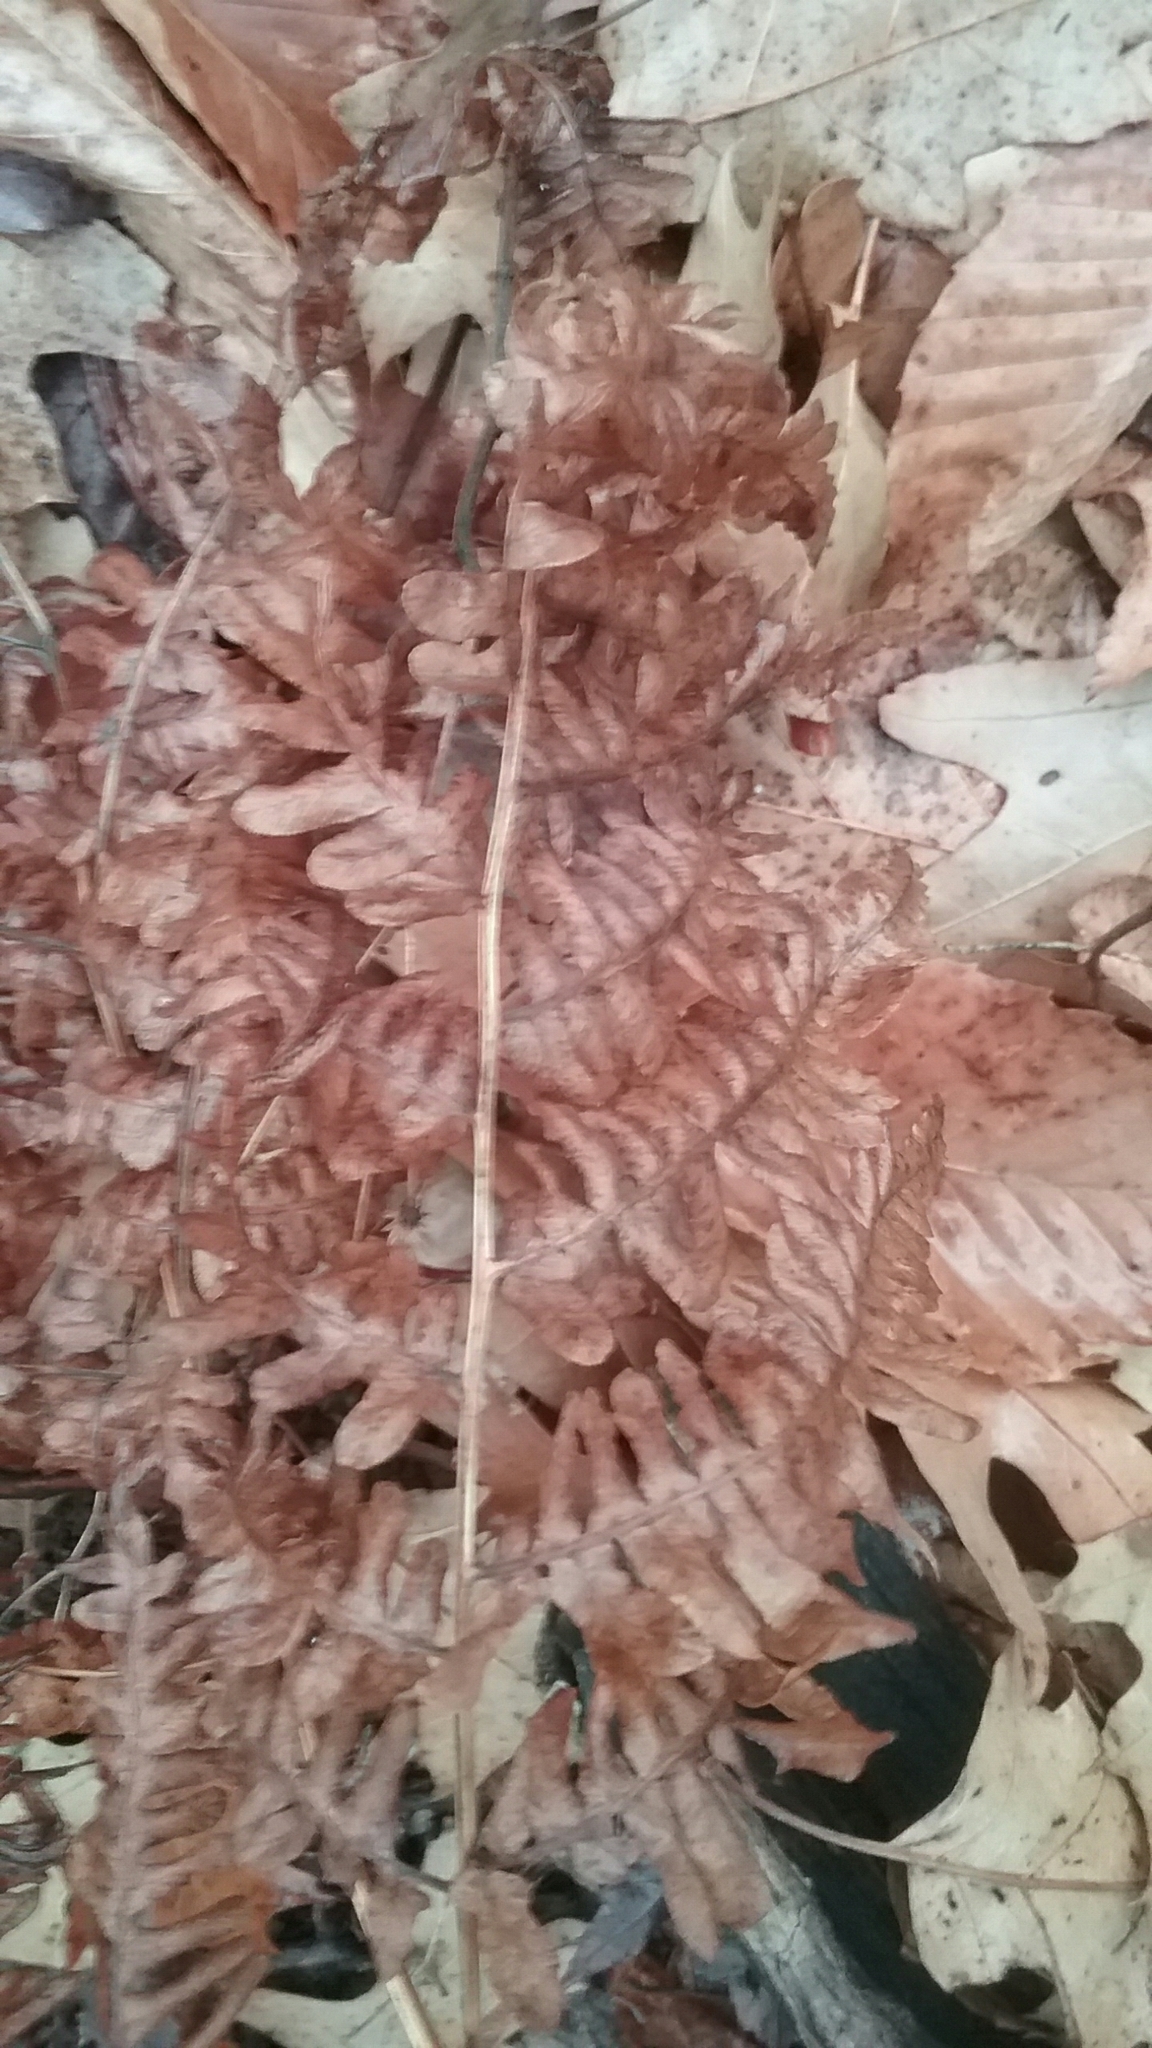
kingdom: Plantae
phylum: Tracheophyta
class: Polypodiopsida
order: Polypodiales
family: Dennstaedtiaceae
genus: Pteridium
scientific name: Pteridium aquilinum
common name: Bracken
